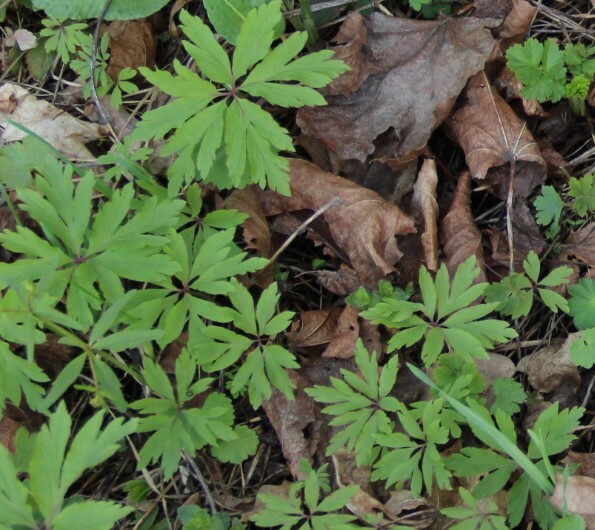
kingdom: Plantae
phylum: Tracheophyta
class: Magnoliopsida
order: Ranunculales
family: Ranunculaceae
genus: Anemone
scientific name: Anemone ranunculoides
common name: Yellow anemone
